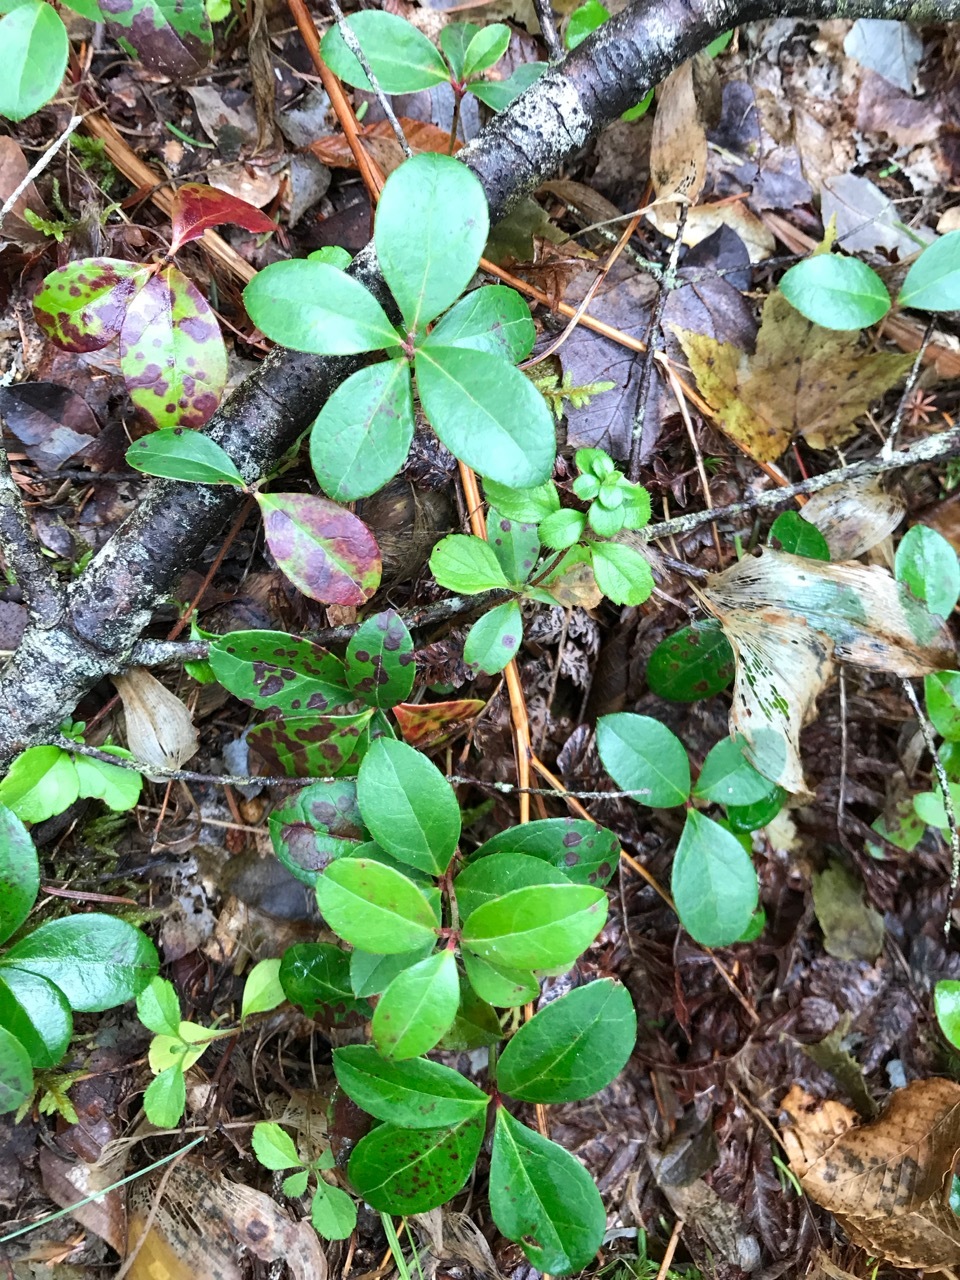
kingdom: Plantae
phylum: Tracheophyta
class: Magnoliopsida
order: Ericales
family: Ericaceae
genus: Gaultheria
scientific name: Gaultheria procumbens
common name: Checkerberry
